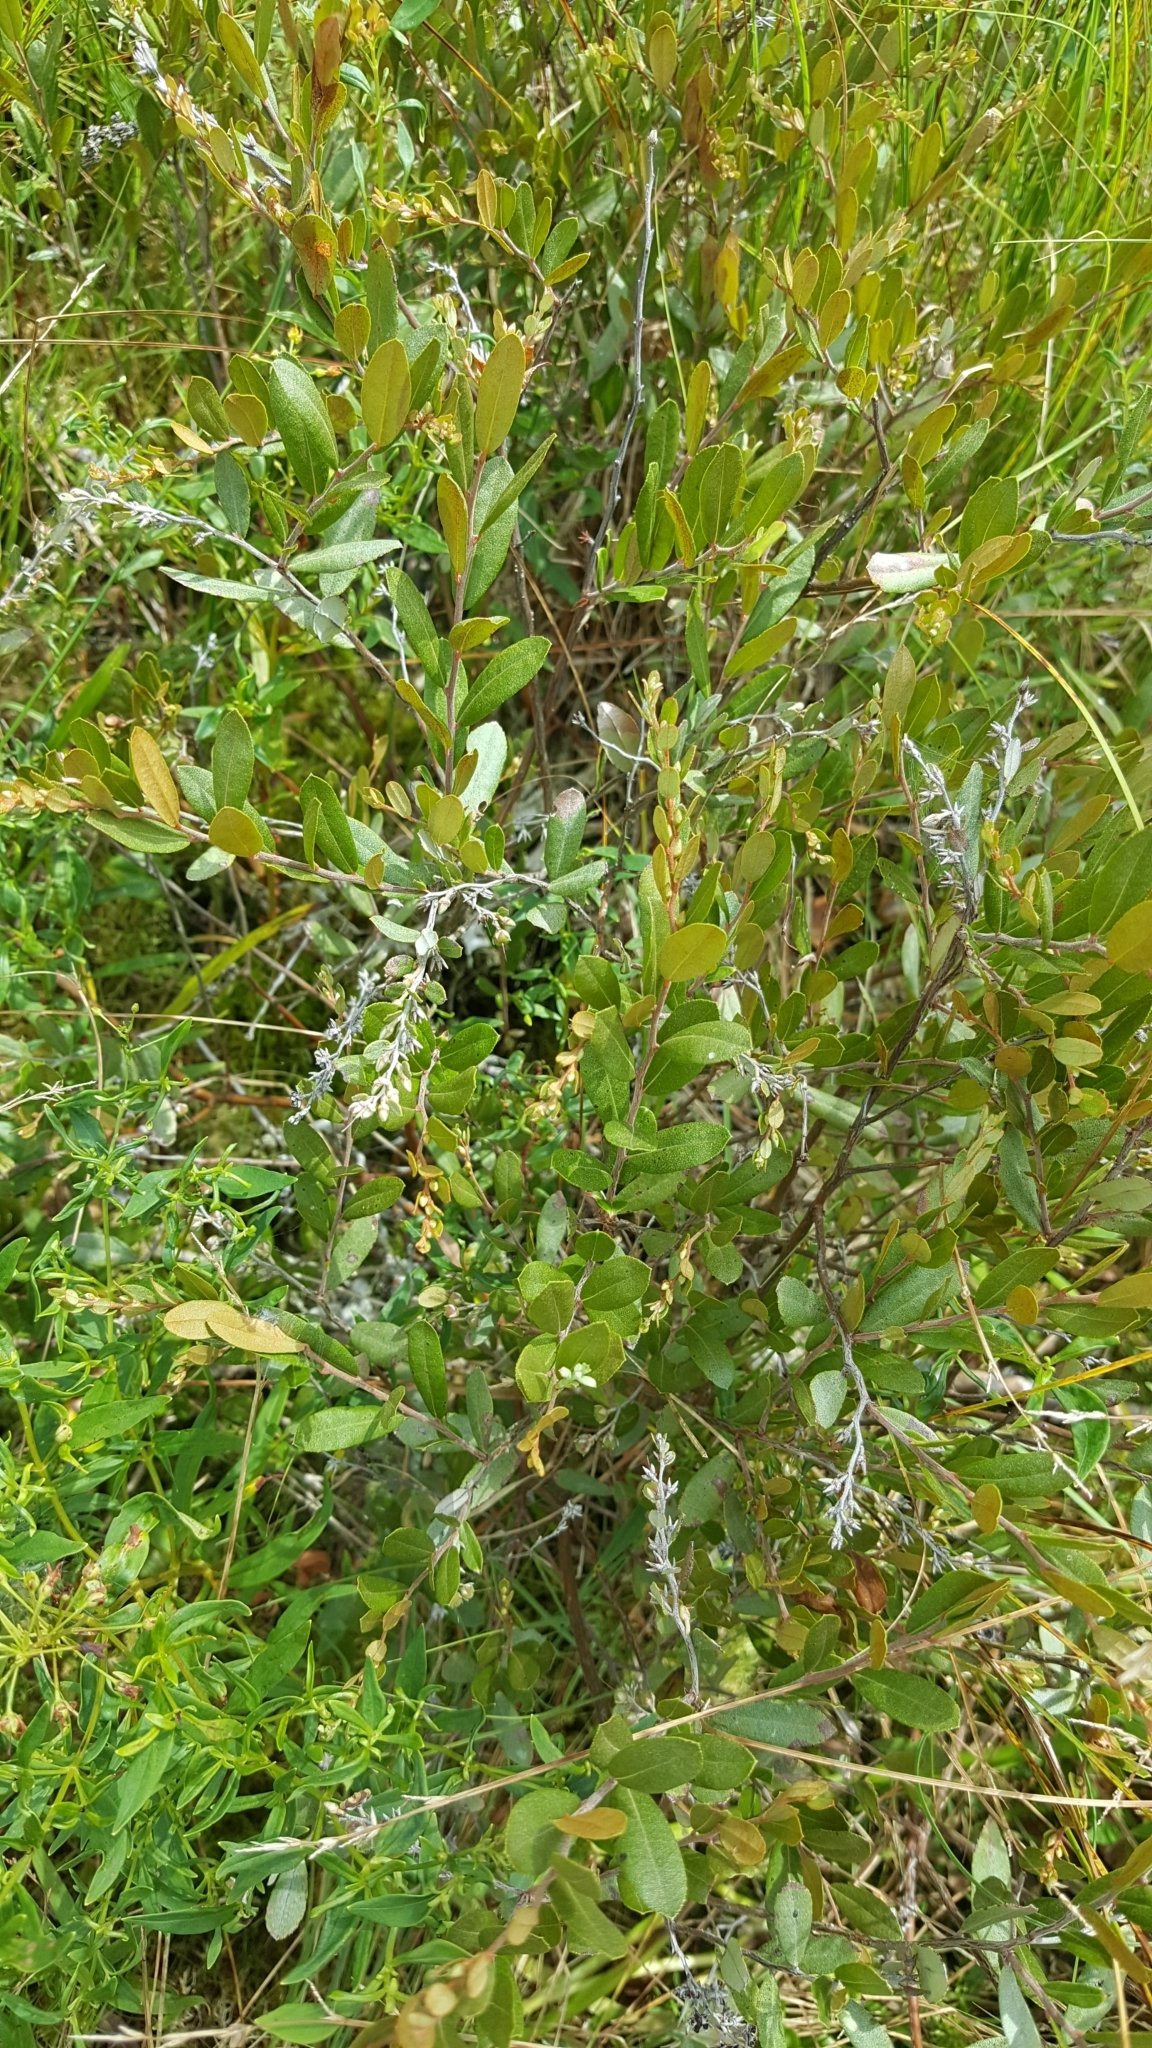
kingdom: Plantae
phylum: Tracheophyta
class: Magnoliopsida
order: Ericales
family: Ericaceae
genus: Chamaedaphne
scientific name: Chamaedaphne calyculata
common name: Leatherleaf
